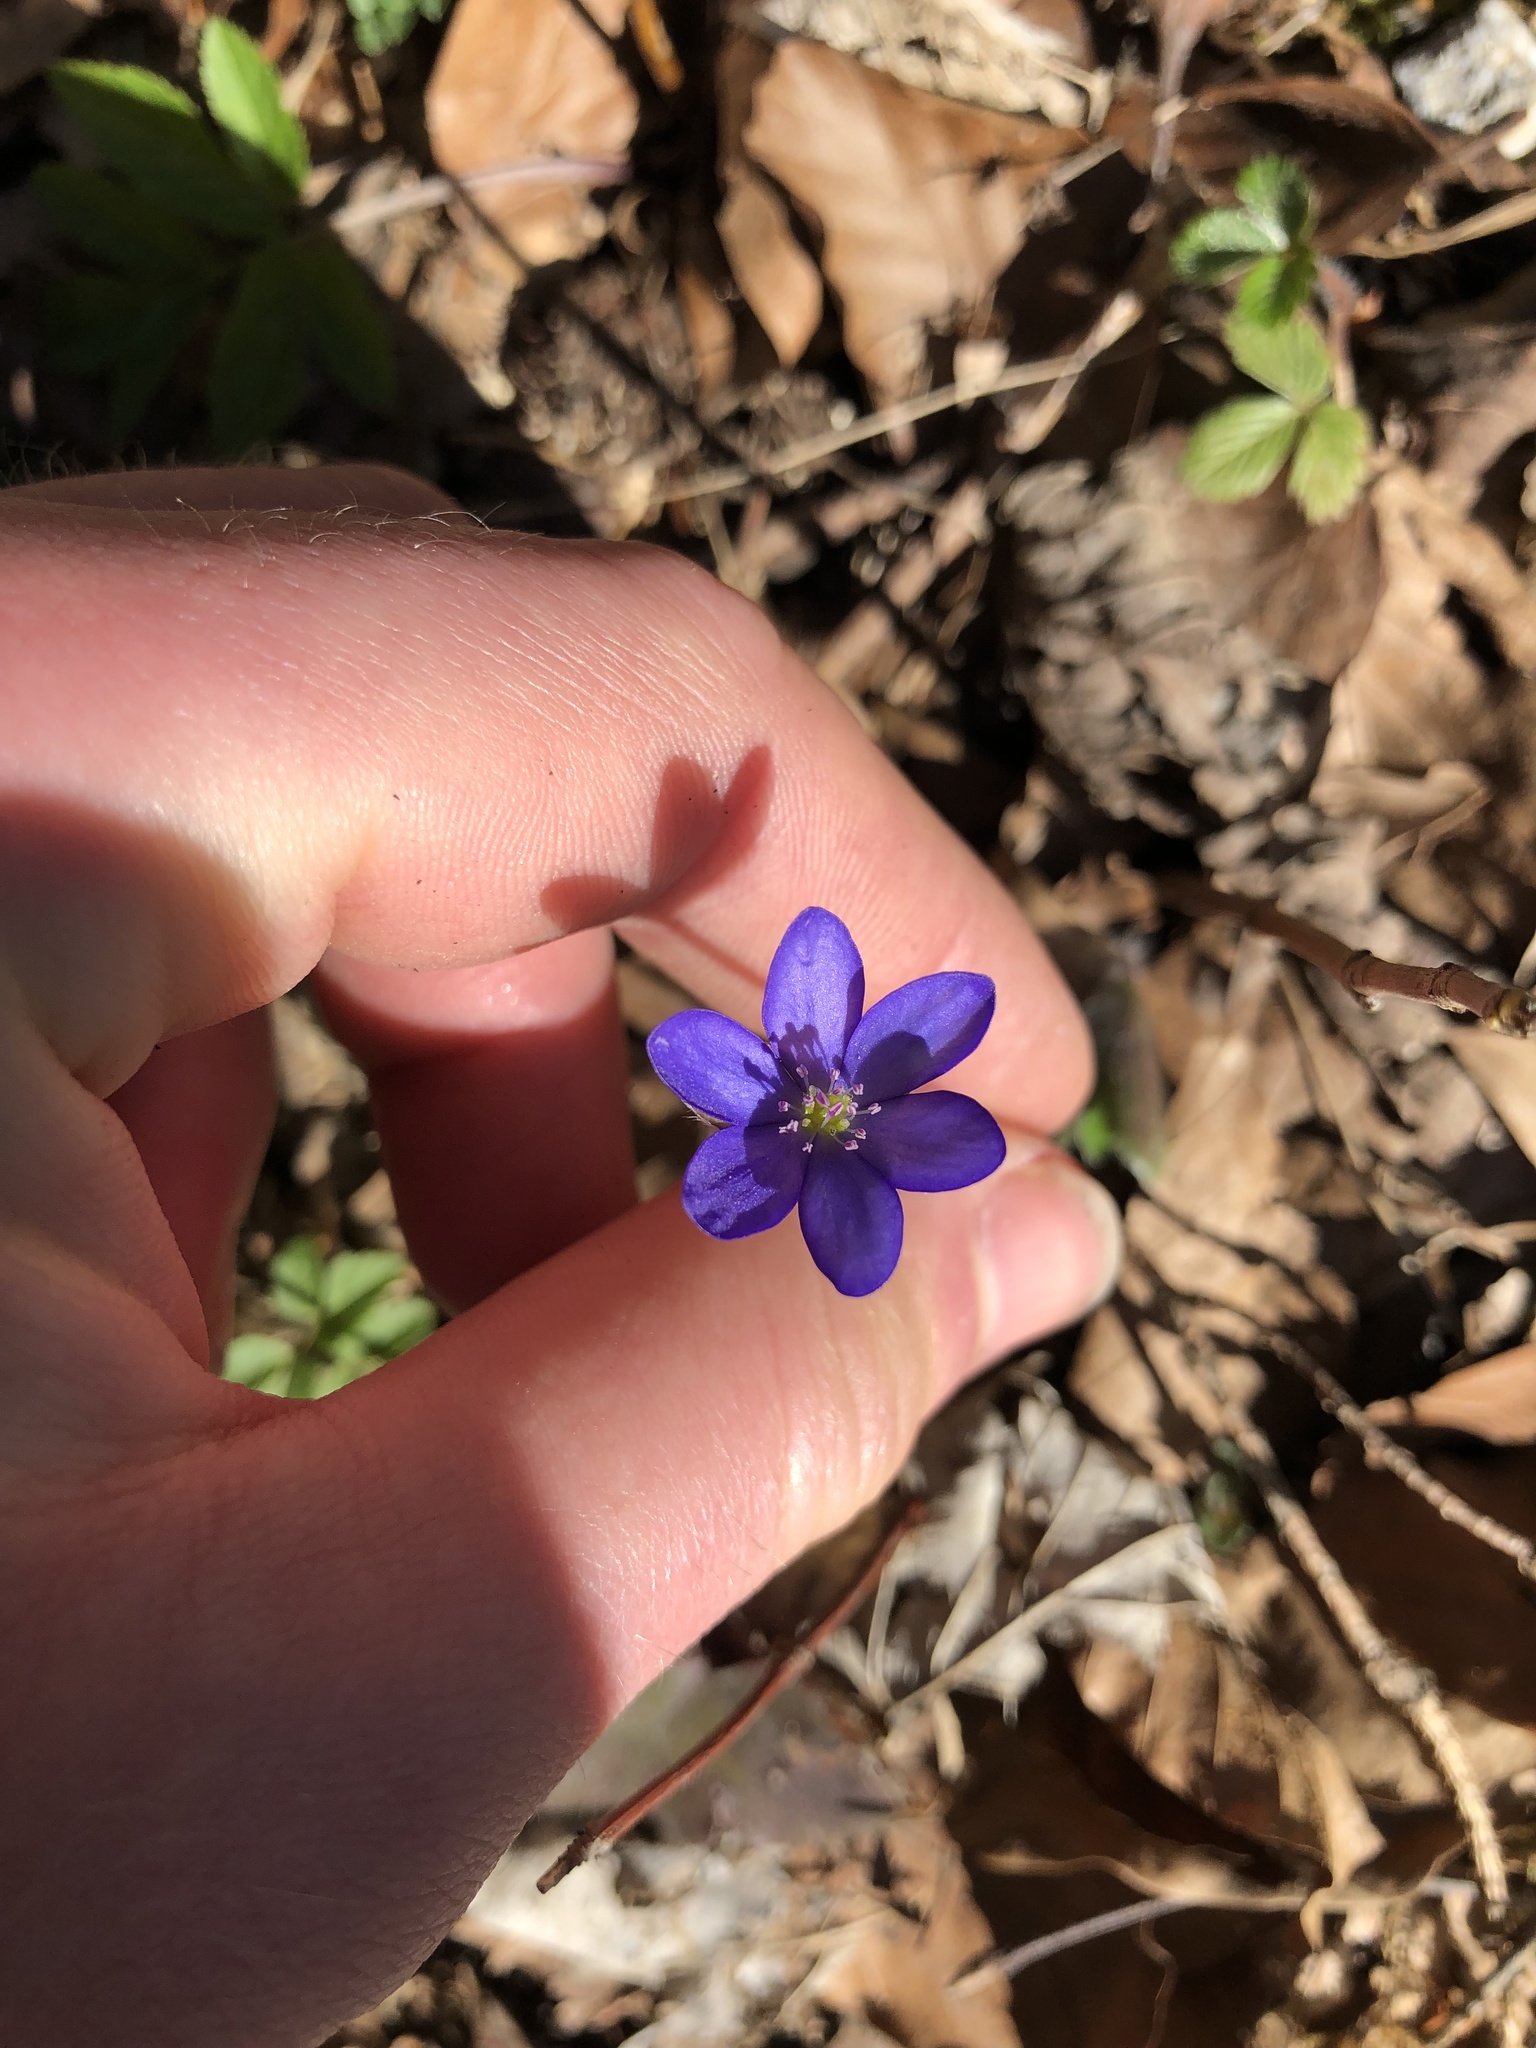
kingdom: Plantae
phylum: Tracheophyta
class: Magnoliopsida
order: Ranunculales
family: Ranunculaceae
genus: Hepatica
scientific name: Hepatica nobilis
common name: Liverleaf
